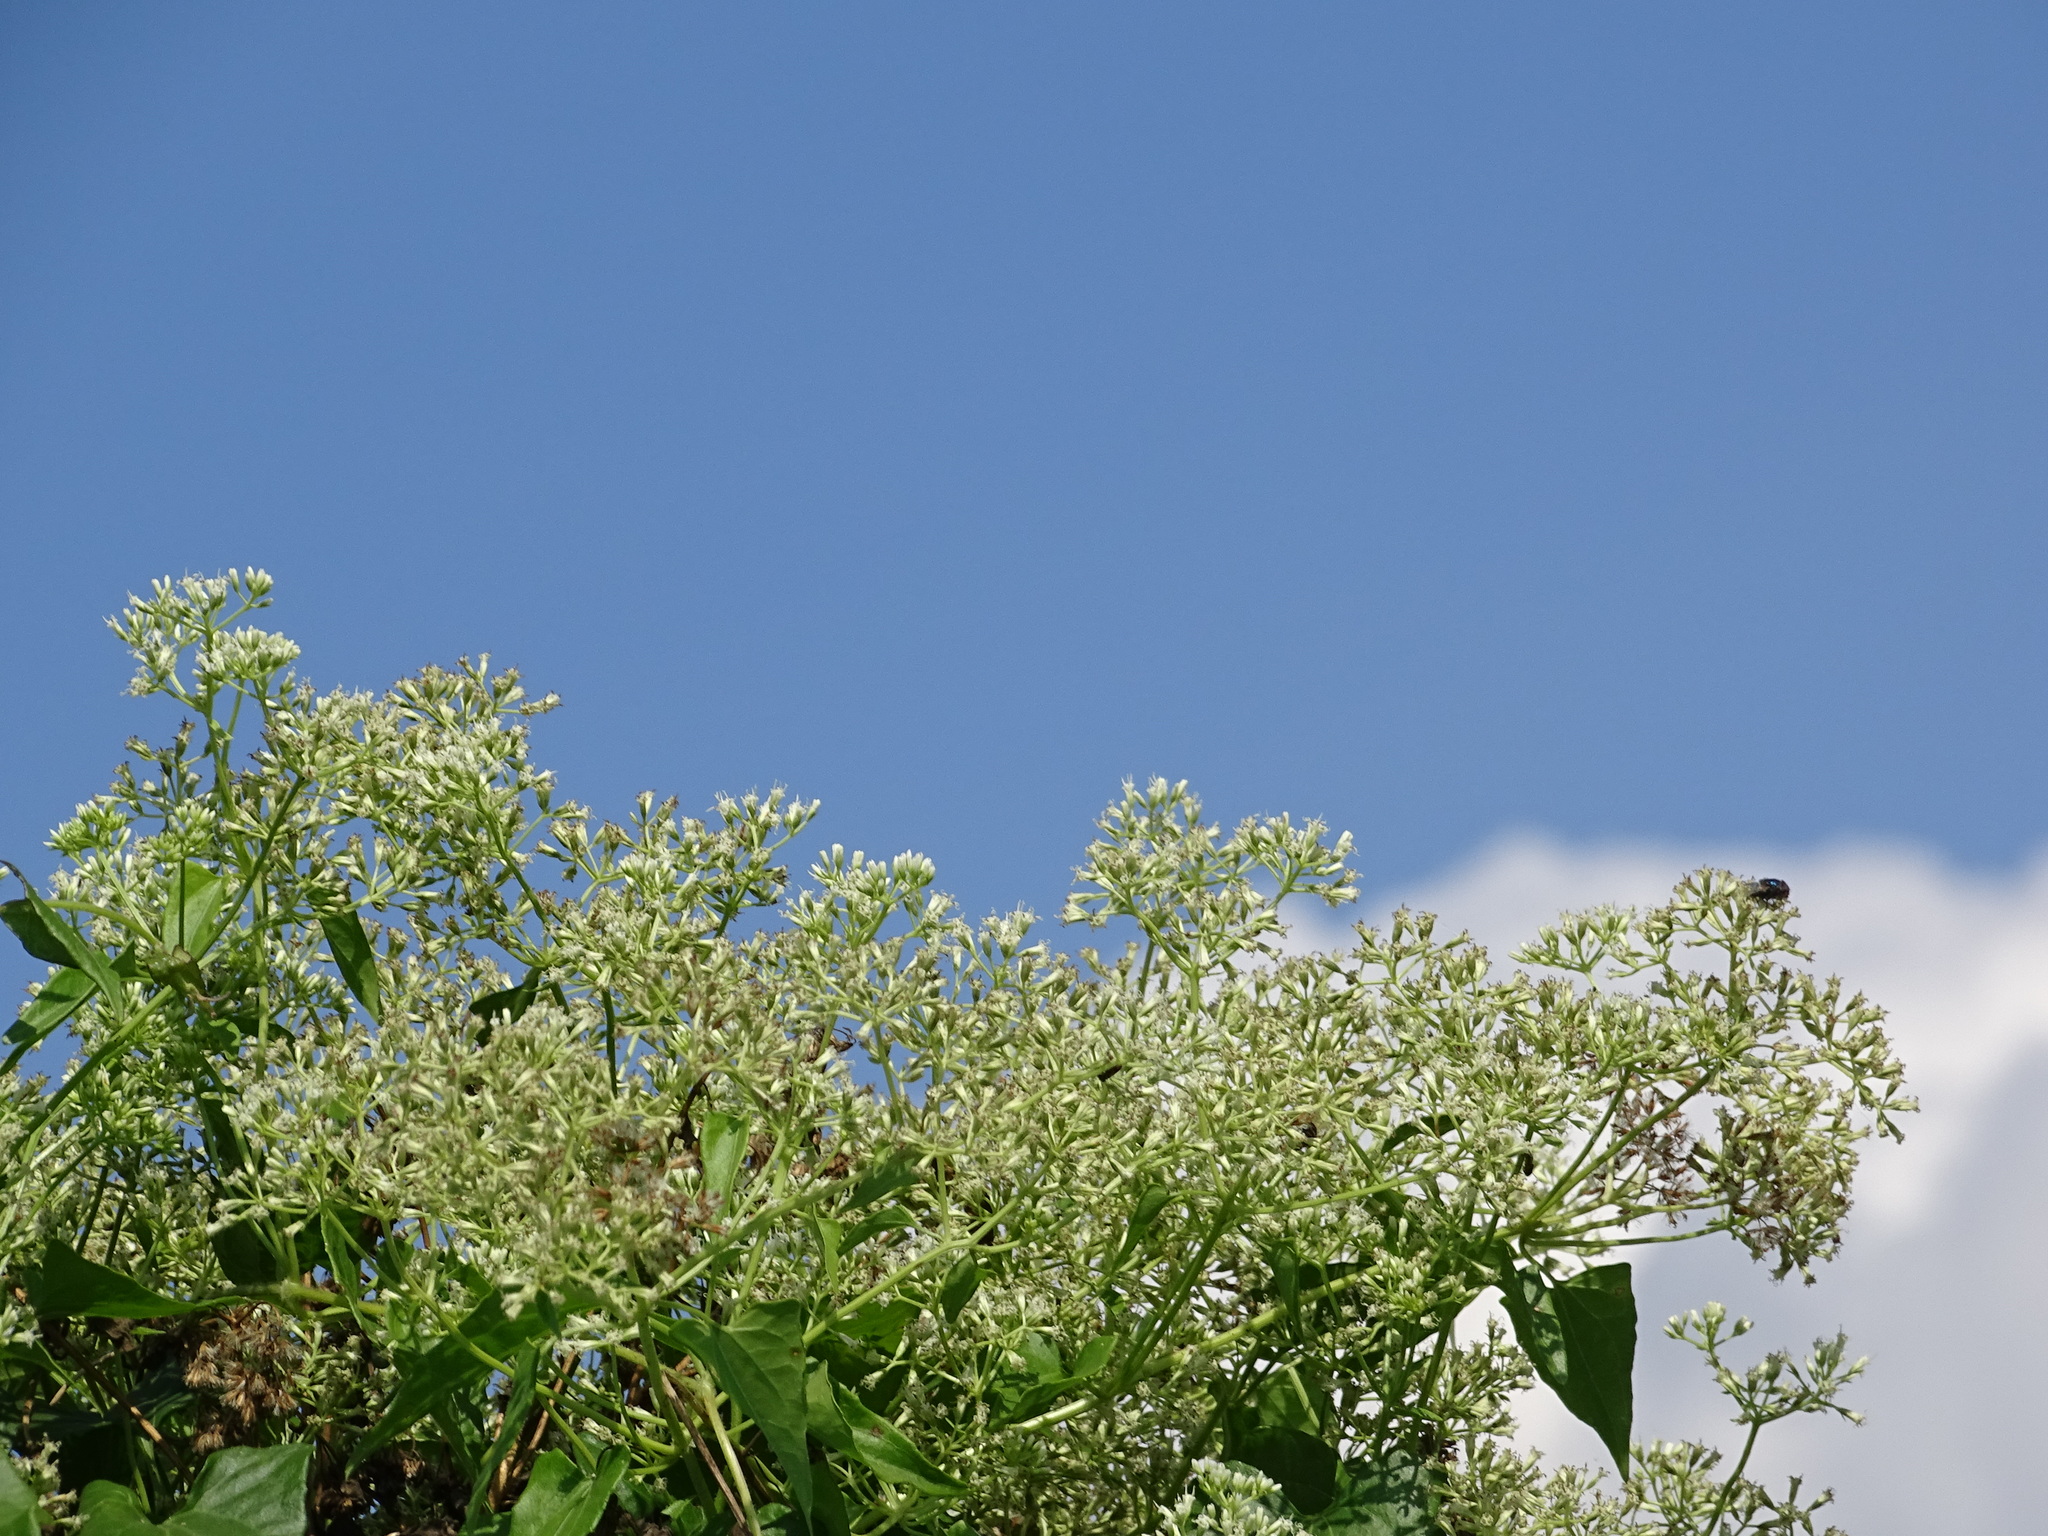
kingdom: Plantae
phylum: Tracheophyta
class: Magnoliopsida
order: Asterales
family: Asteraceae
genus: Mikania
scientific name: Mikania micrantha
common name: Mile-a-minute
